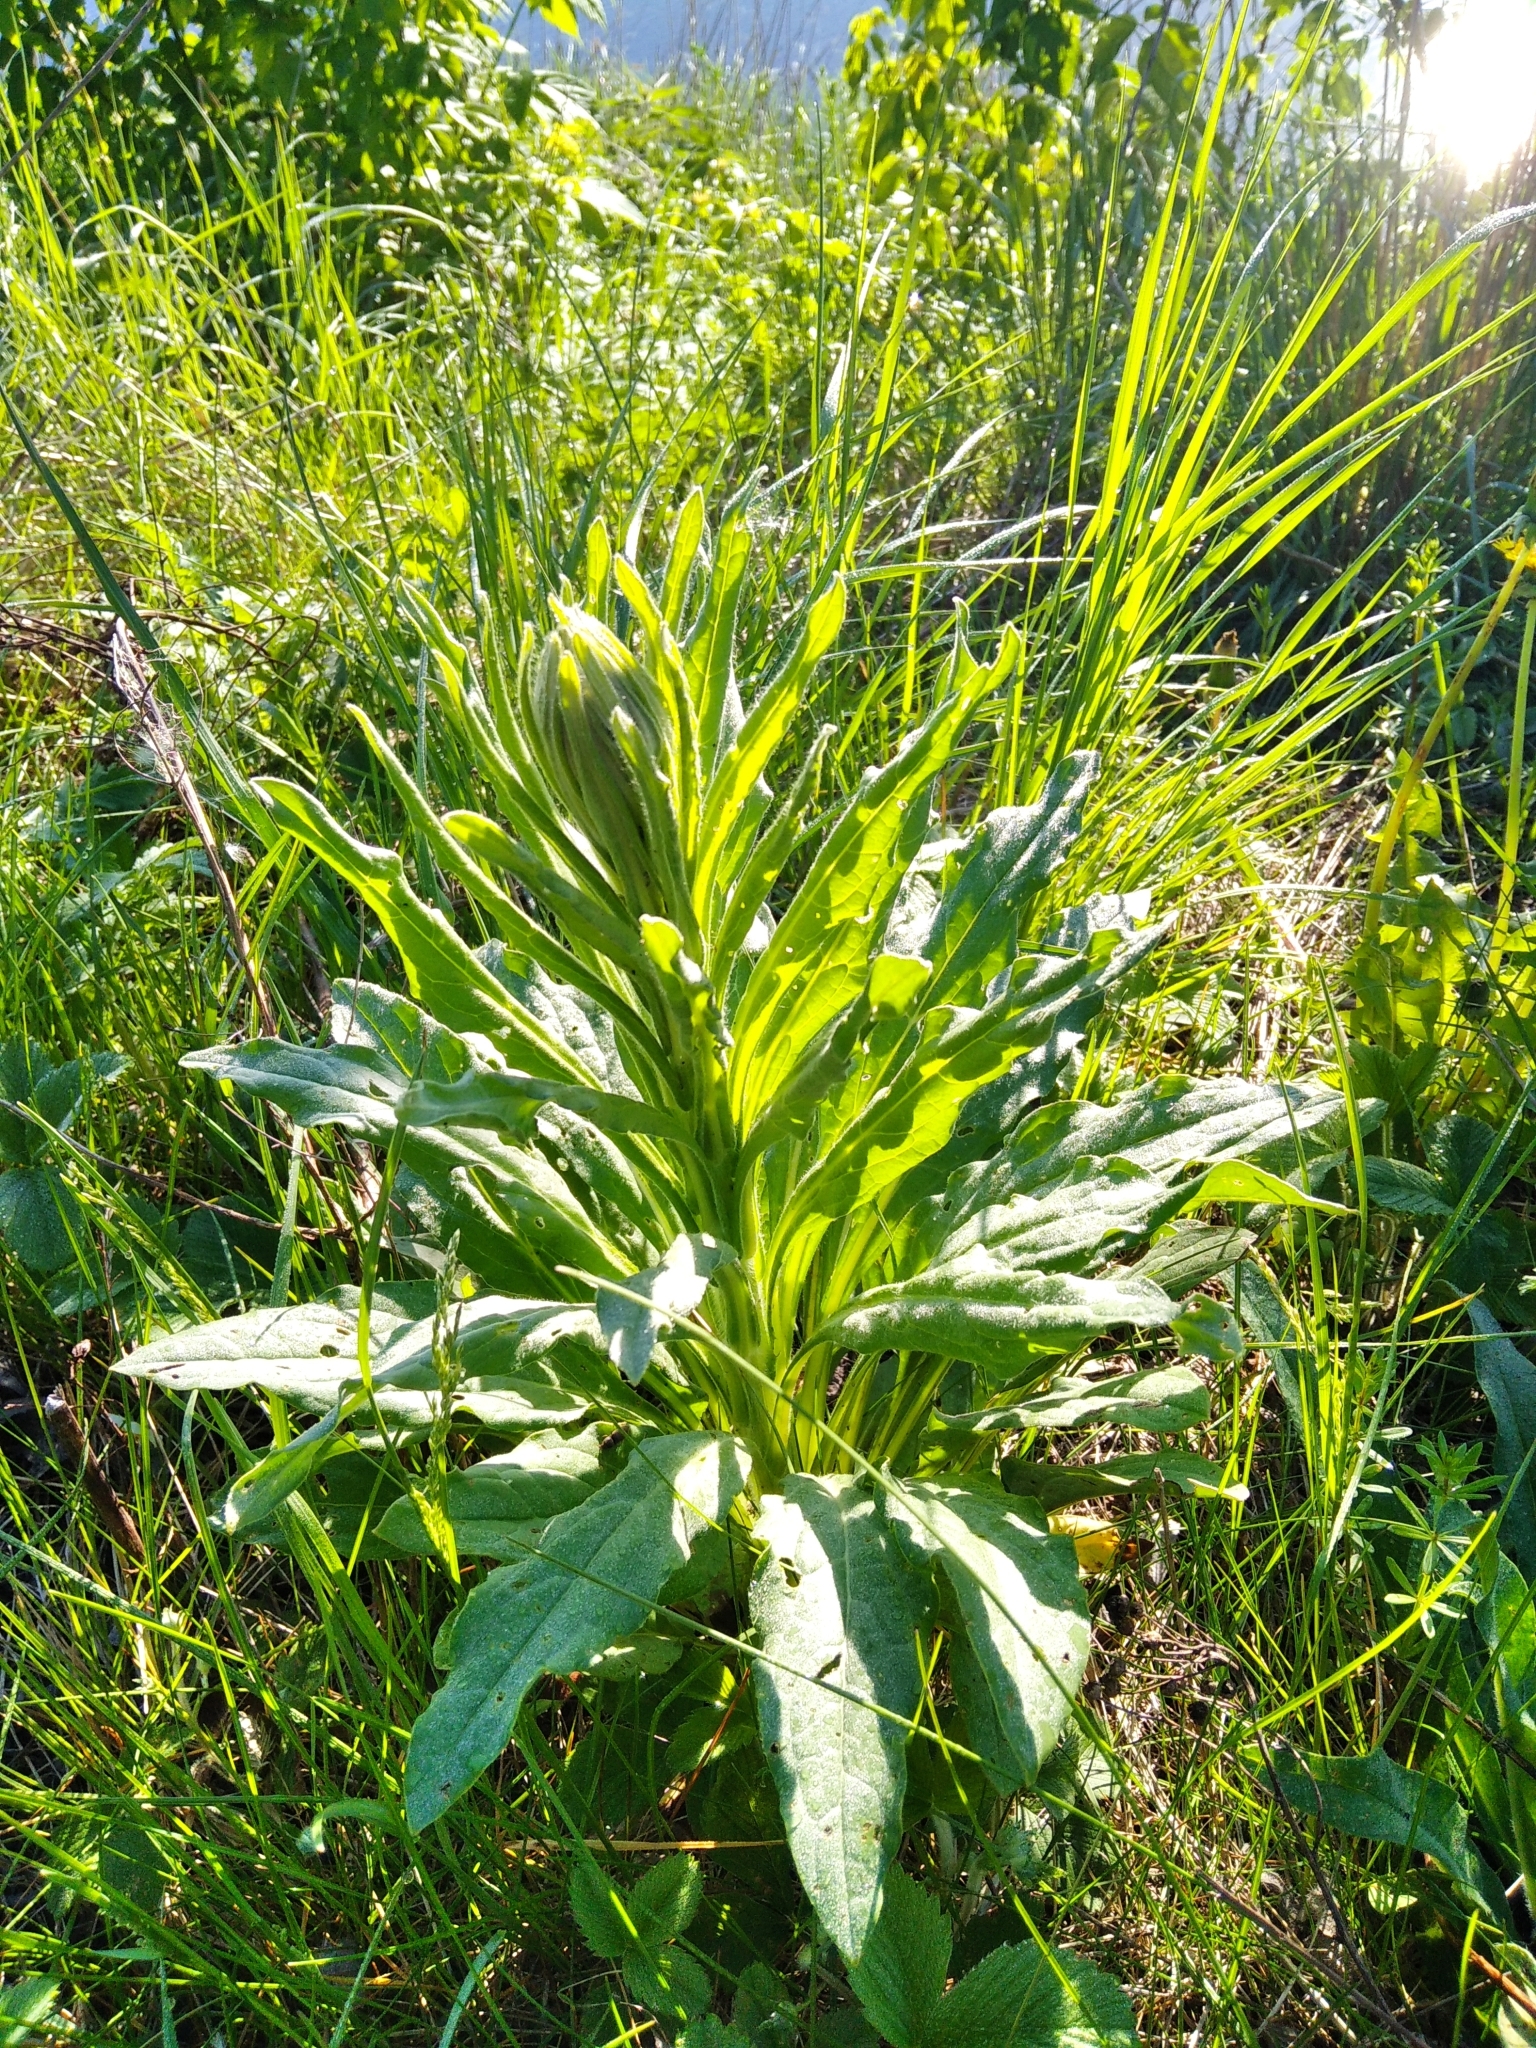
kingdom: Plantae
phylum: Tracheophyta
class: Magnoliopsida
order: Boraginales
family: Boraginaceae
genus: Cynoglossum
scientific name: Cynoglossum officinale
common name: Hound's-tongue
